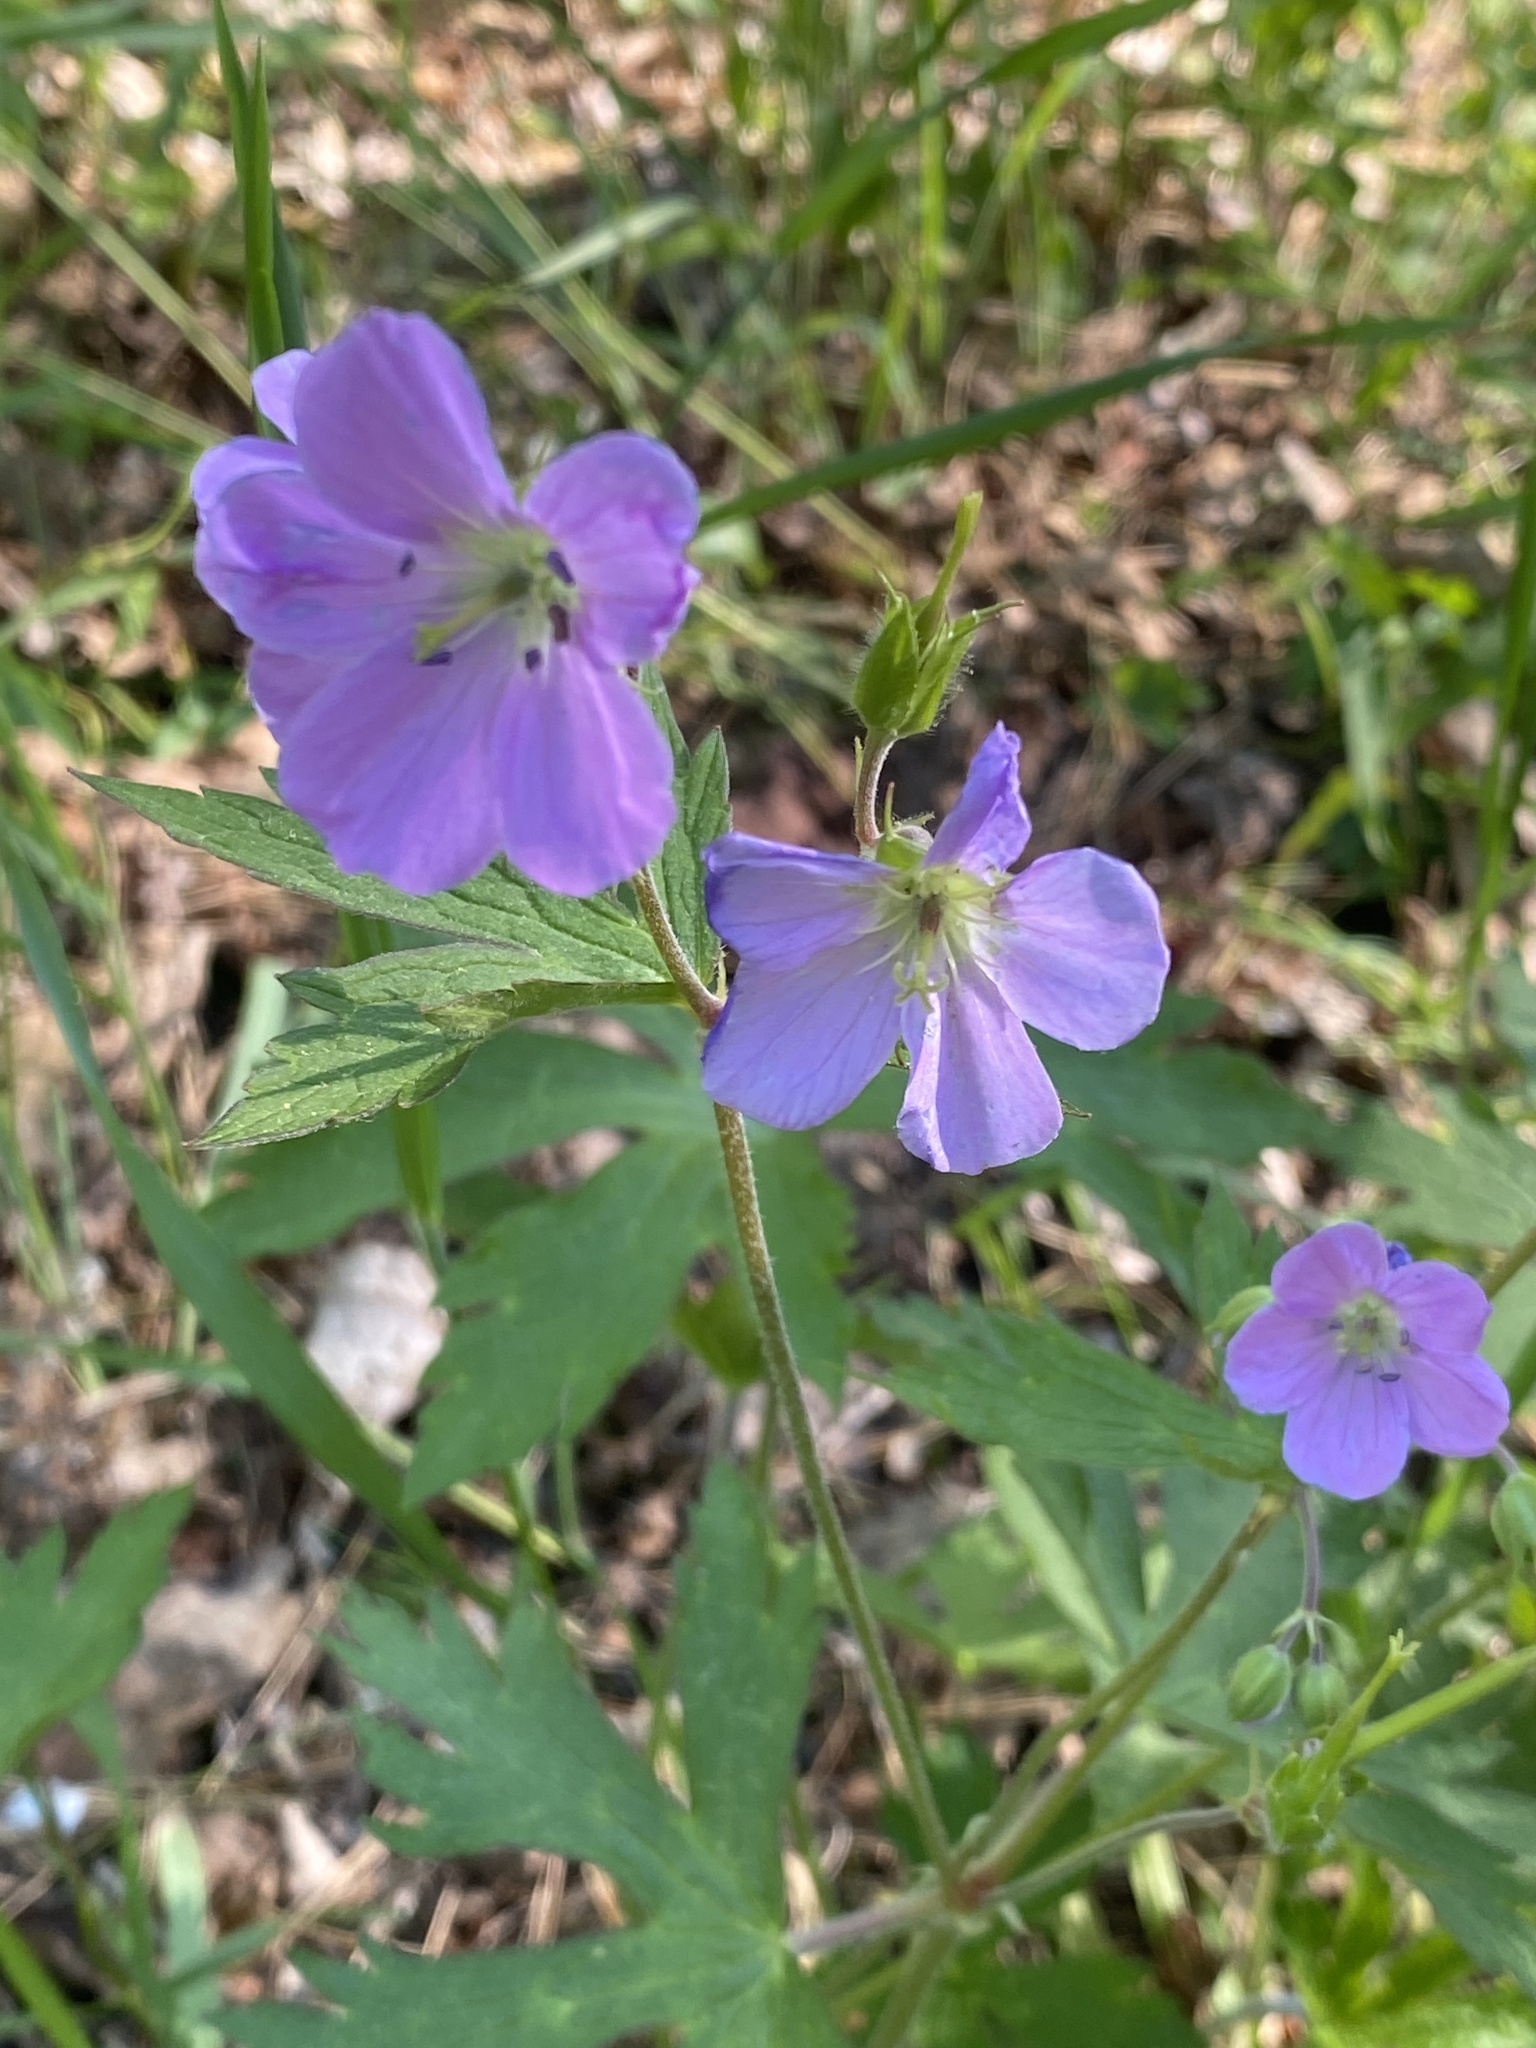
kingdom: Plantae
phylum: Tracheophyta
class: Magnoliopsida
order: Geraniales
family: Geraniaceae
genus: Geranium
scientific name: Geranium maculatum
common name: Spotted geranium
